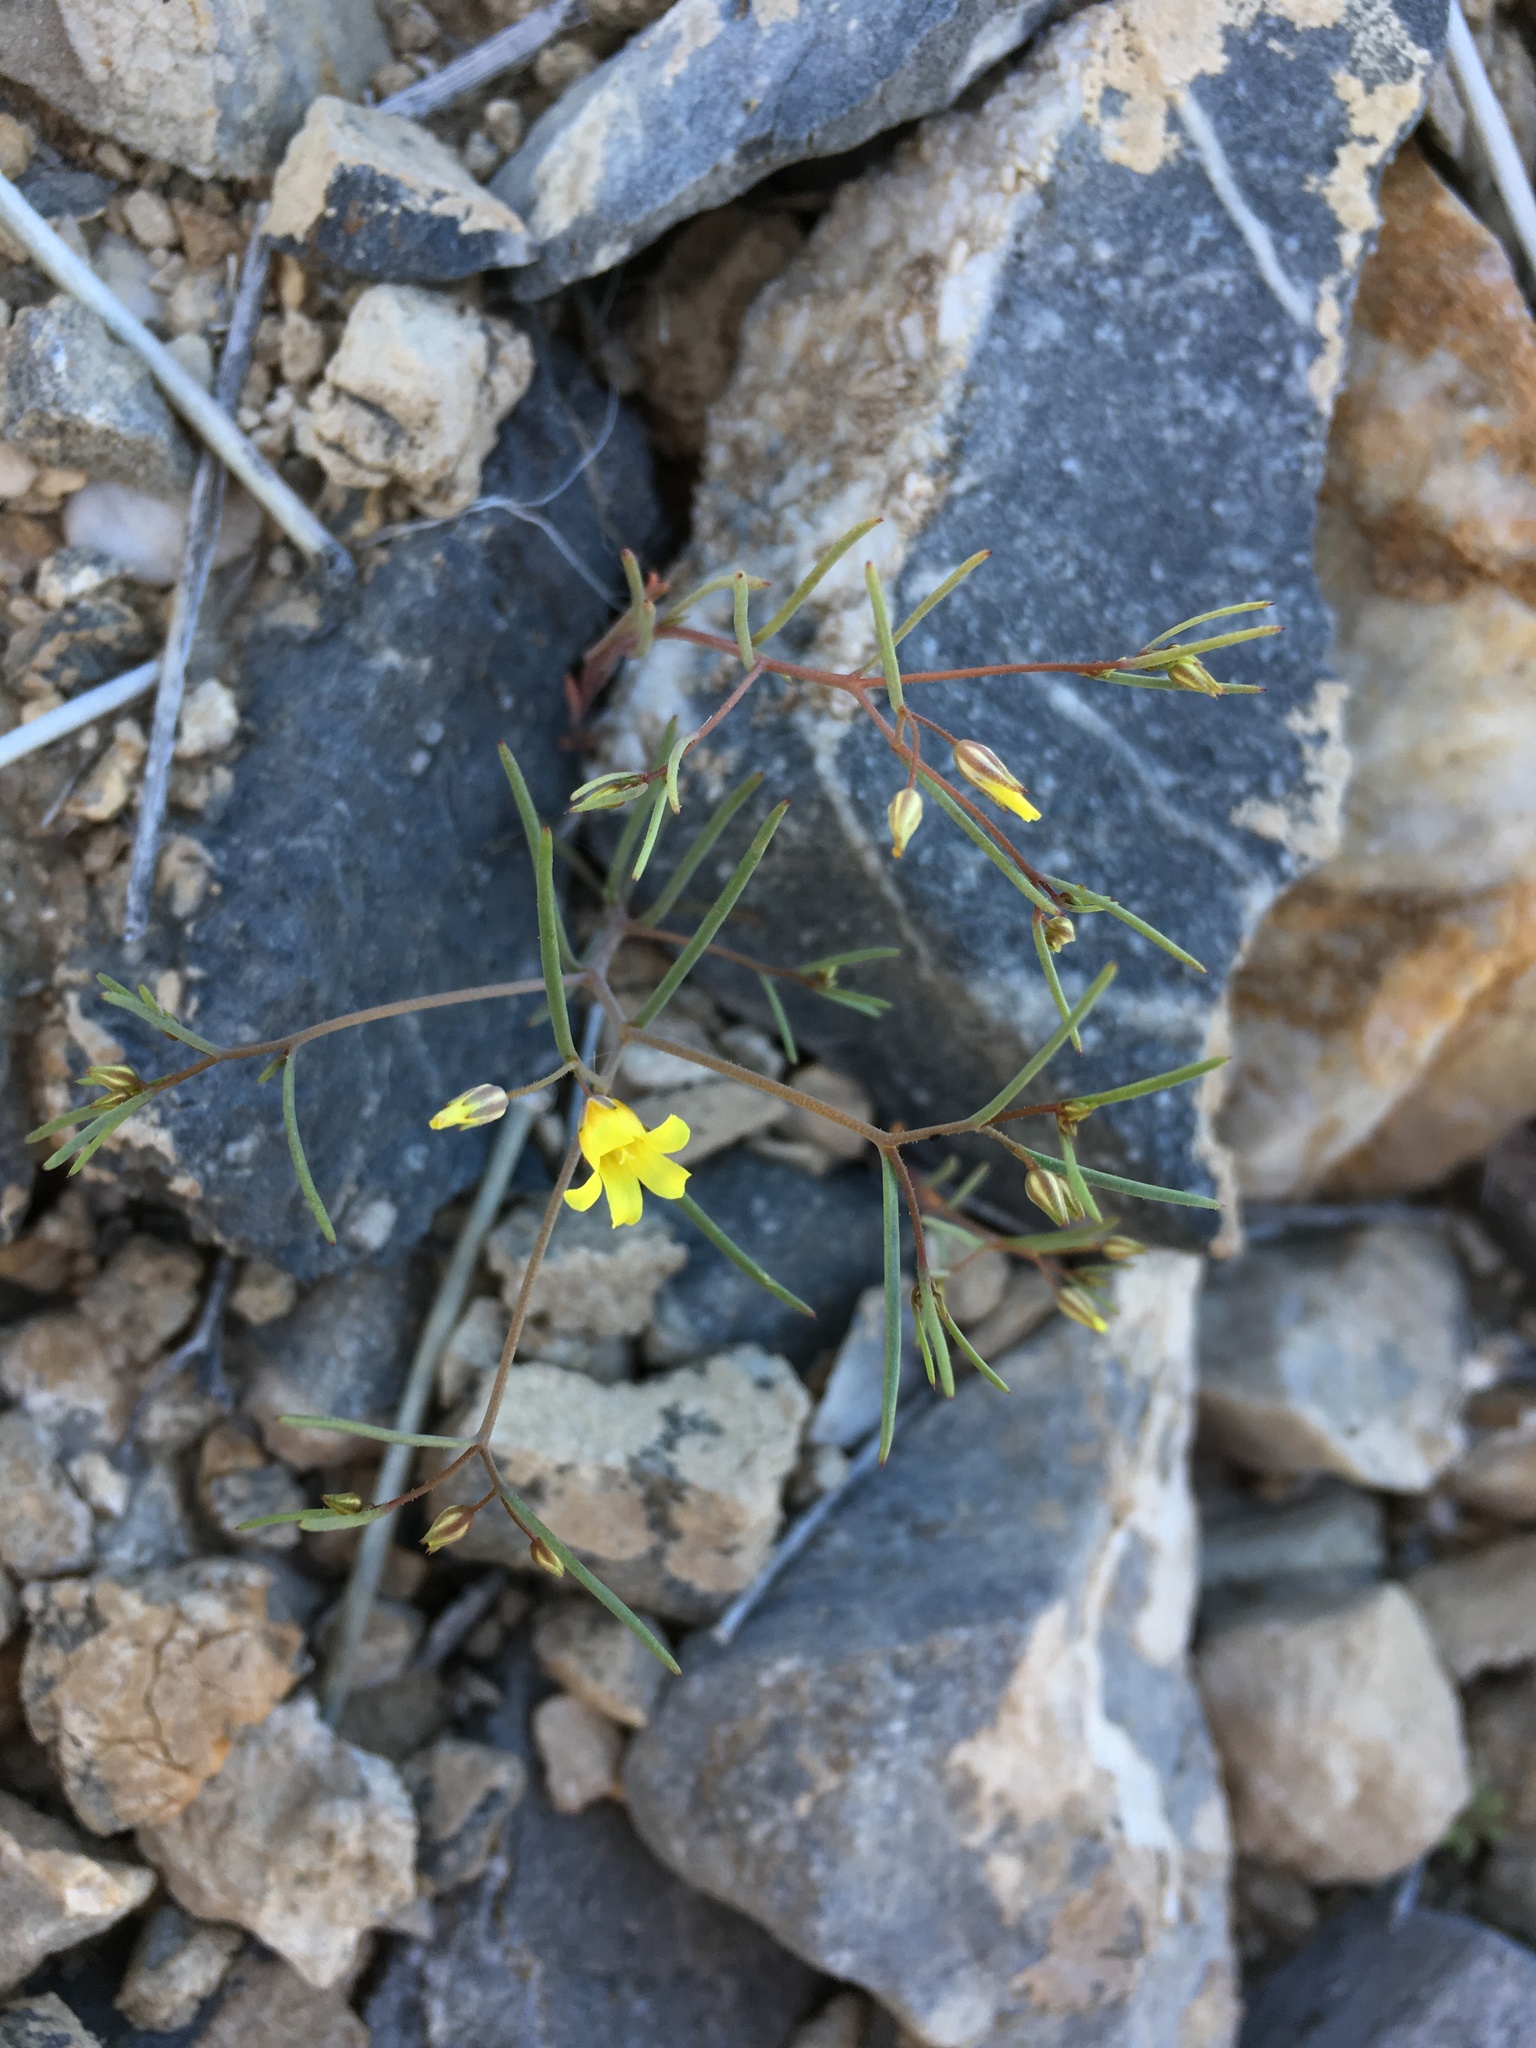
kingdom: Plantae
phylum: Tracheophyta
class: Magnoliopsida
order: Ericales
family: Polemoniaceae
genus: Linanthus
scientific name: Linanthus filiformis
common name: Yellow gilia
